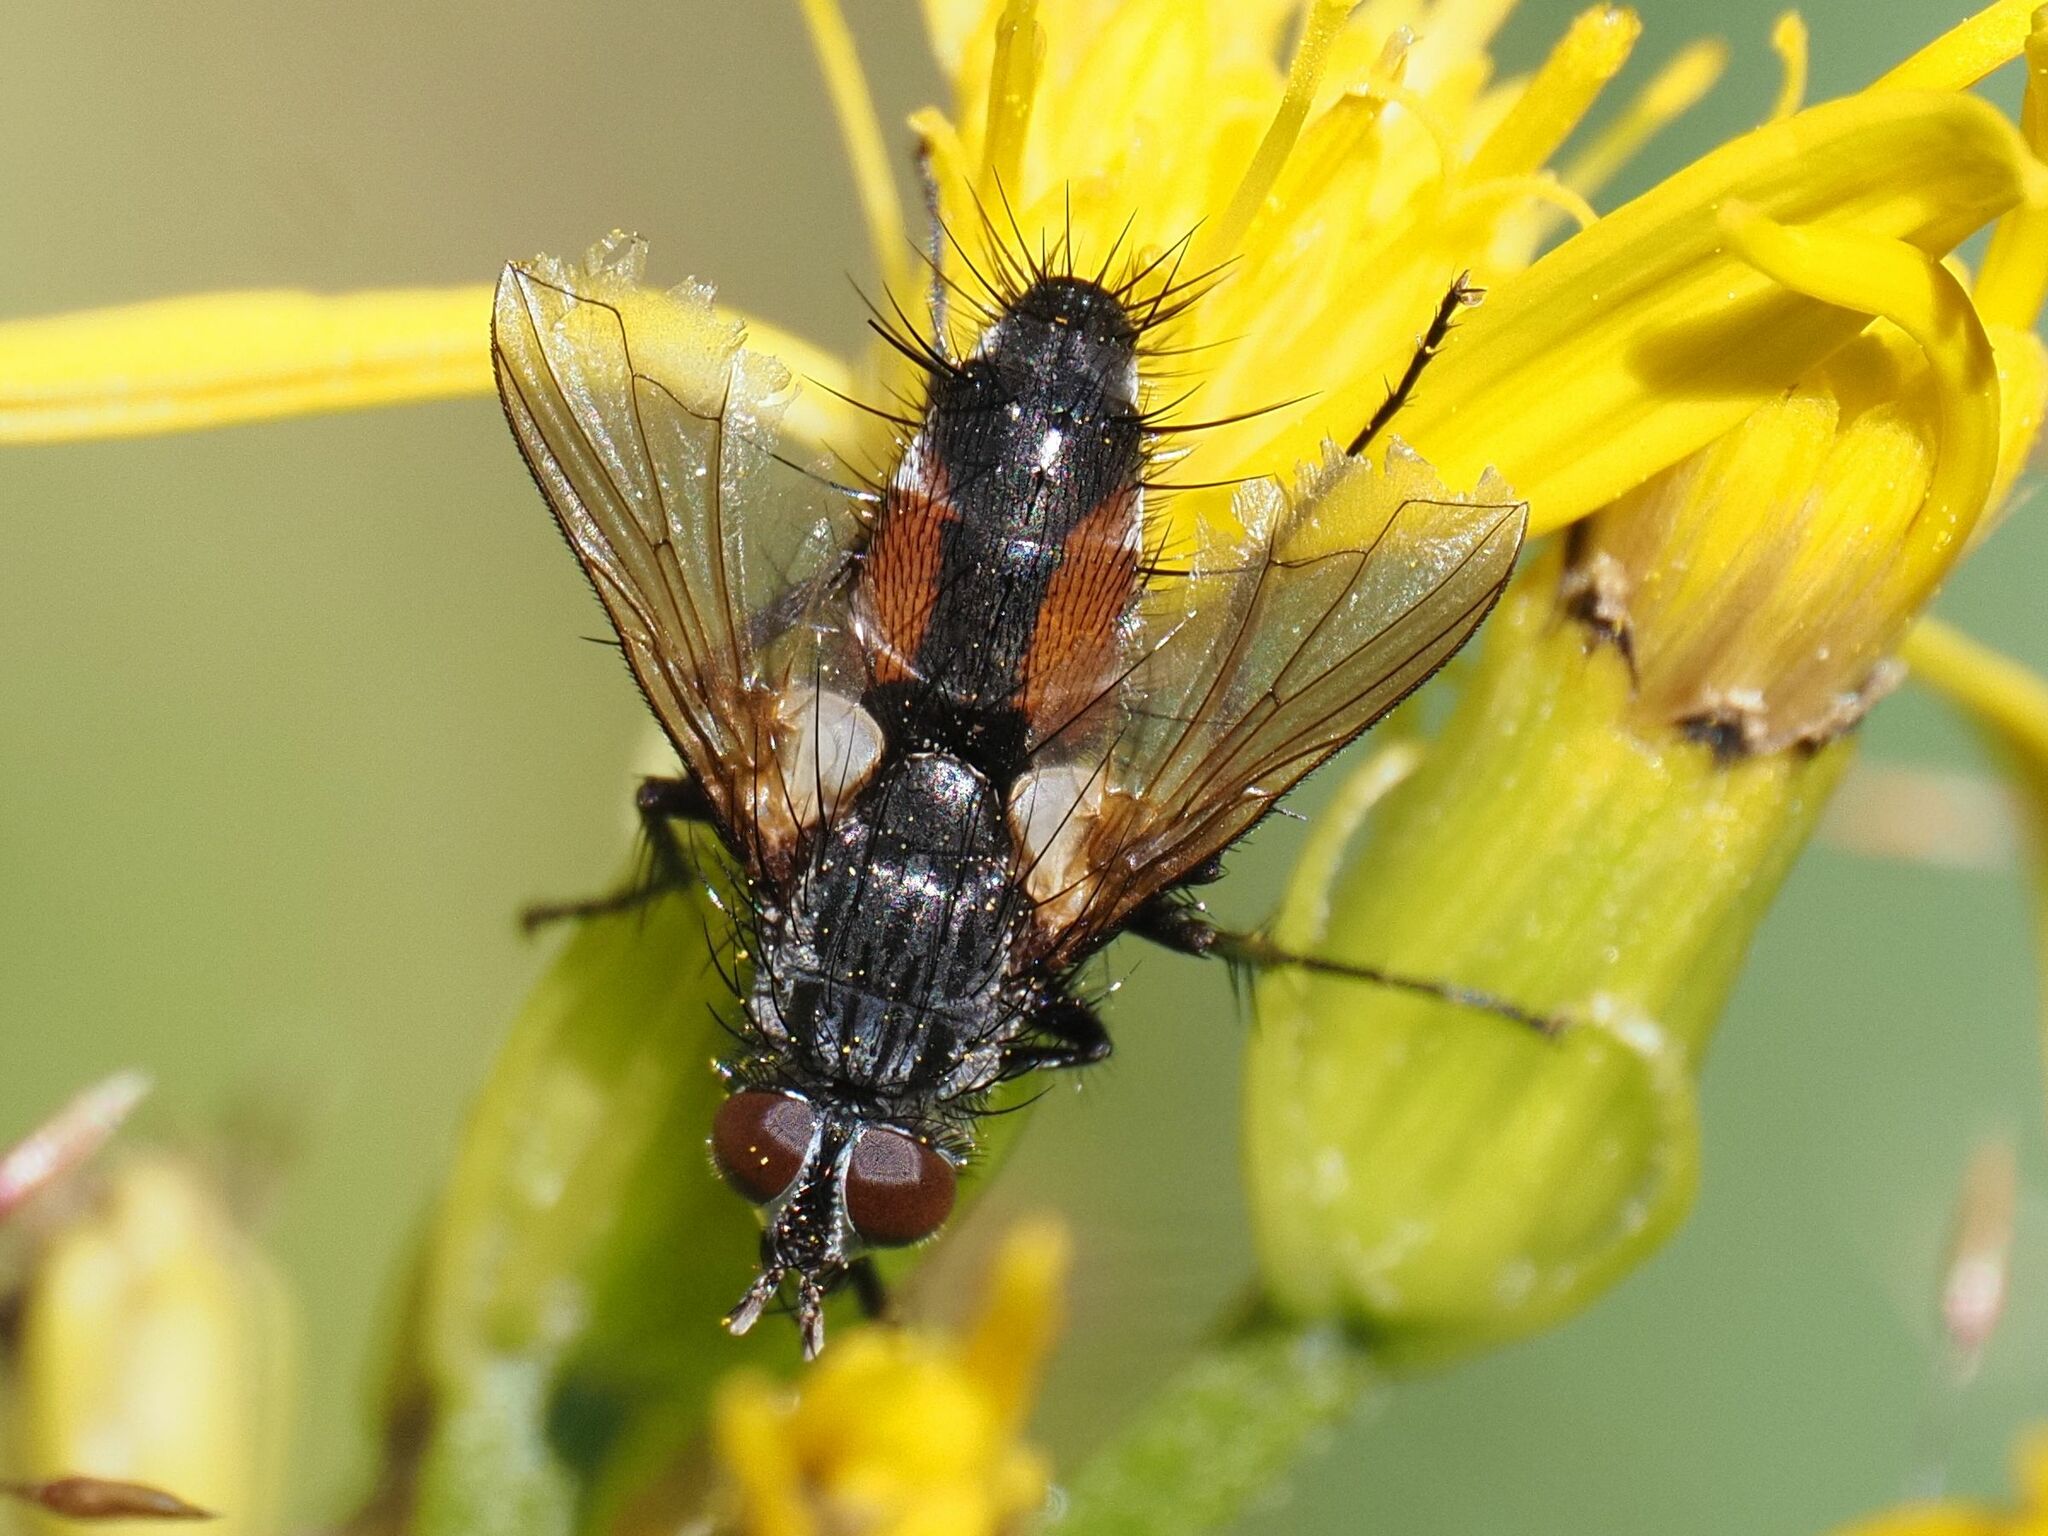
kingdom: Animalia
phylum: Arthropoda
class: Insecta
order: Diptera
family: Tachinidae
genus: Eriothrix
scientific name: Eriothrix rufomaculatus
